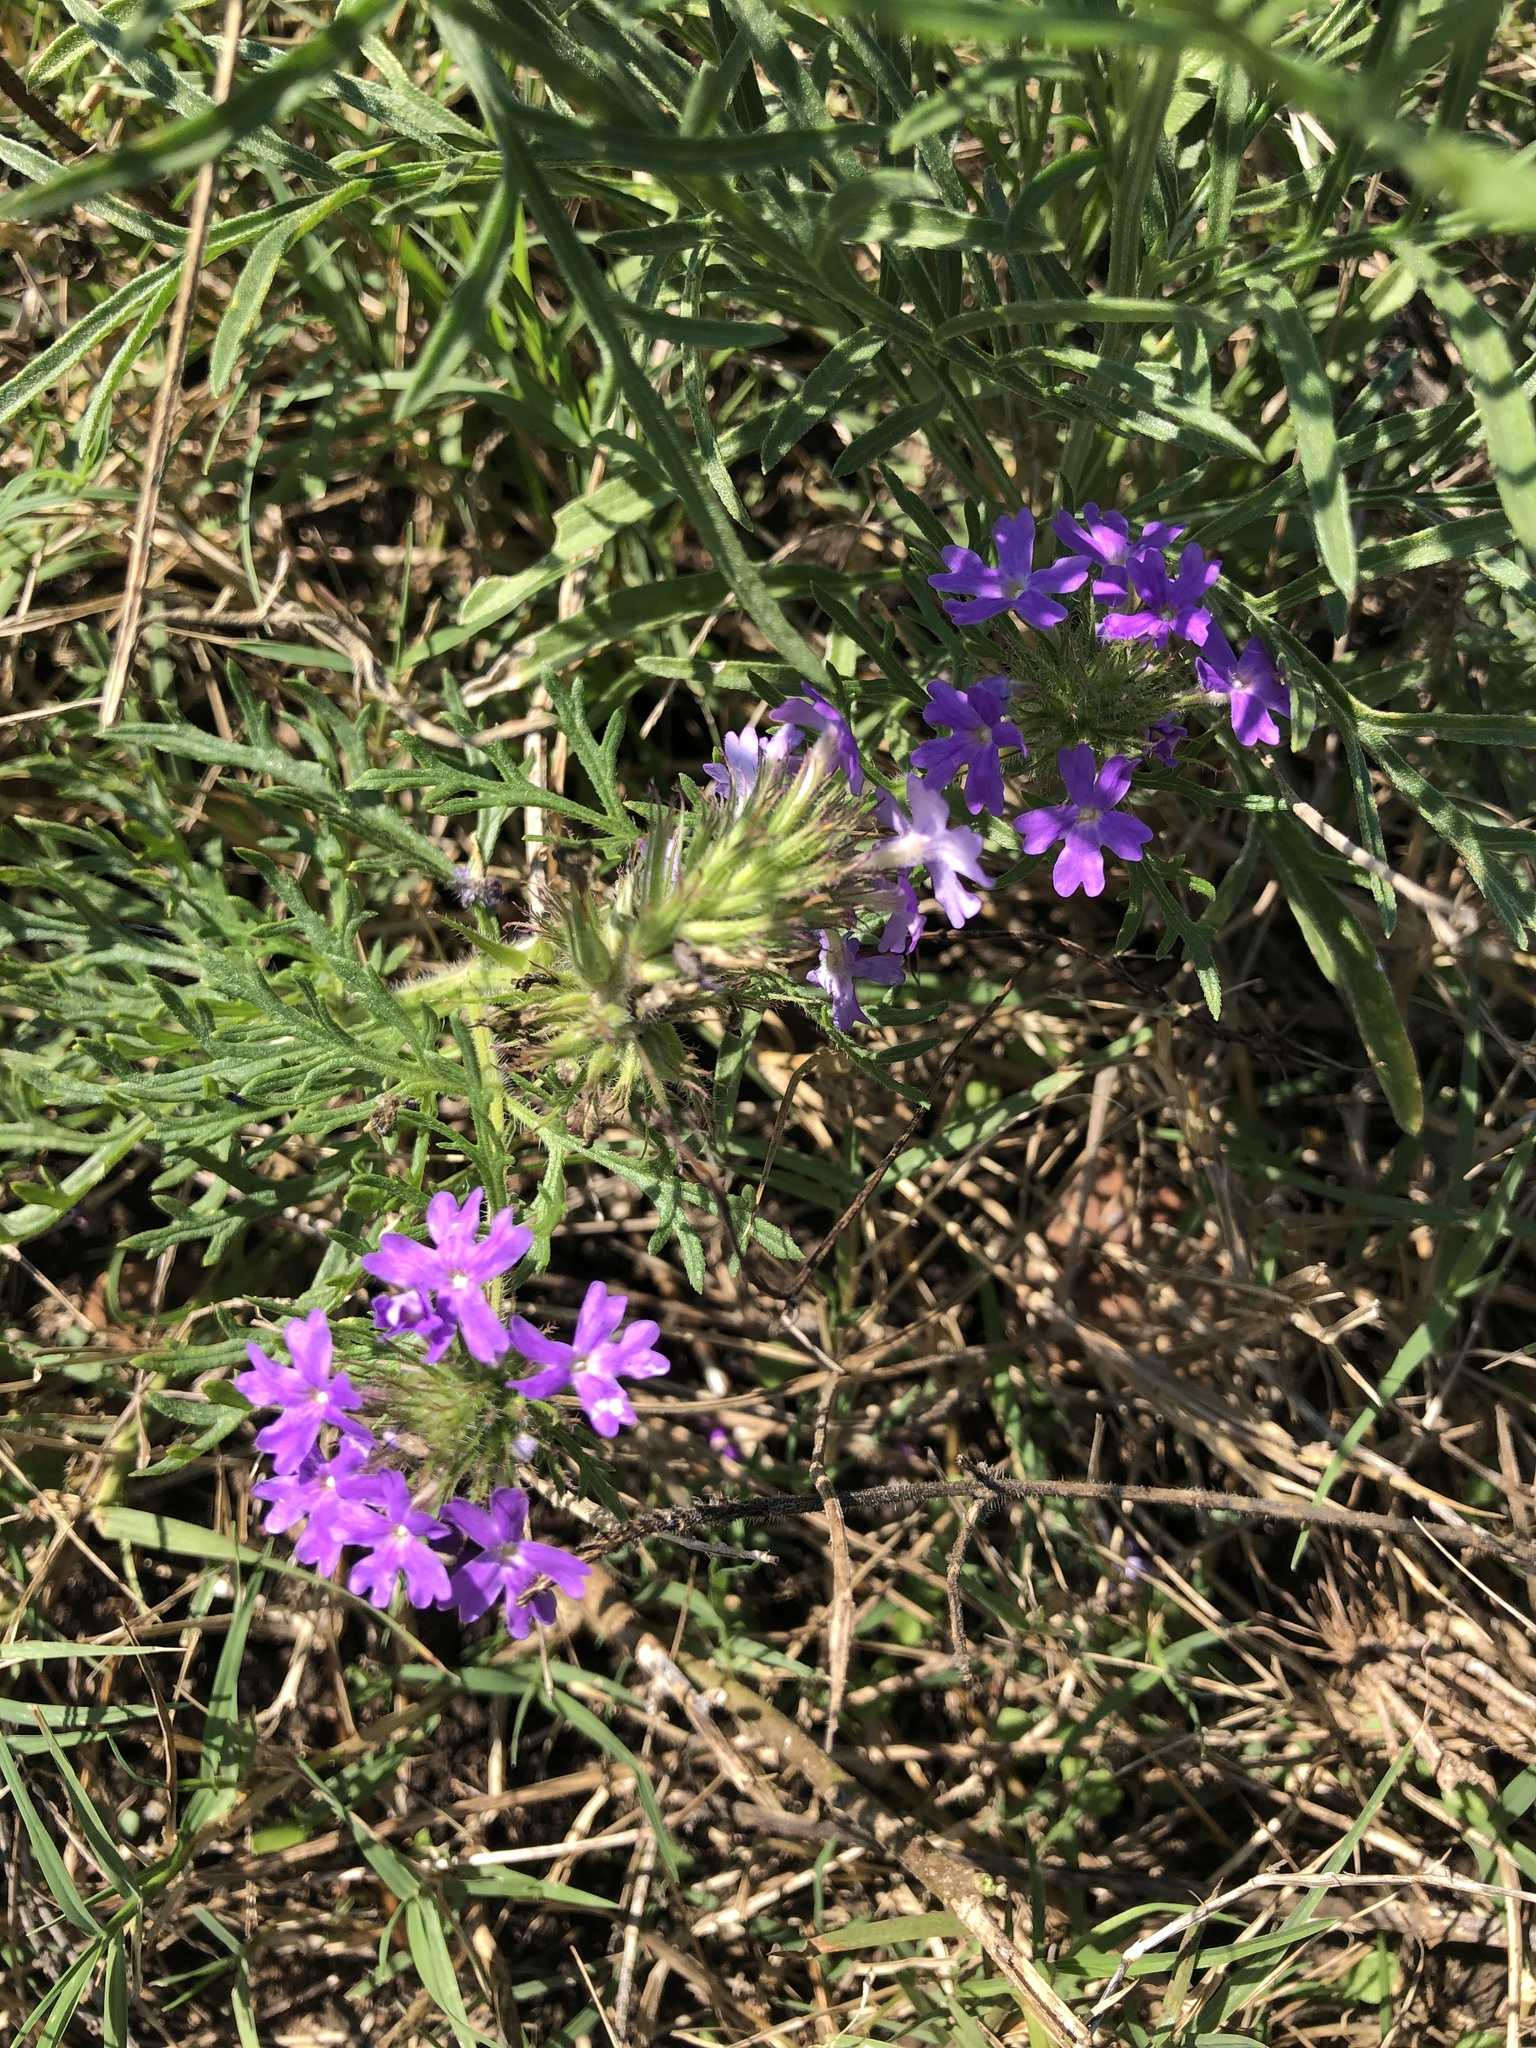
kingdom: Plantae
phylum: Tracheophyta
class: Magnoliopsida
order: Lamiales
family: Verbenaceae
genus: Verbena
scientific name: Verbena bipinnatifida
